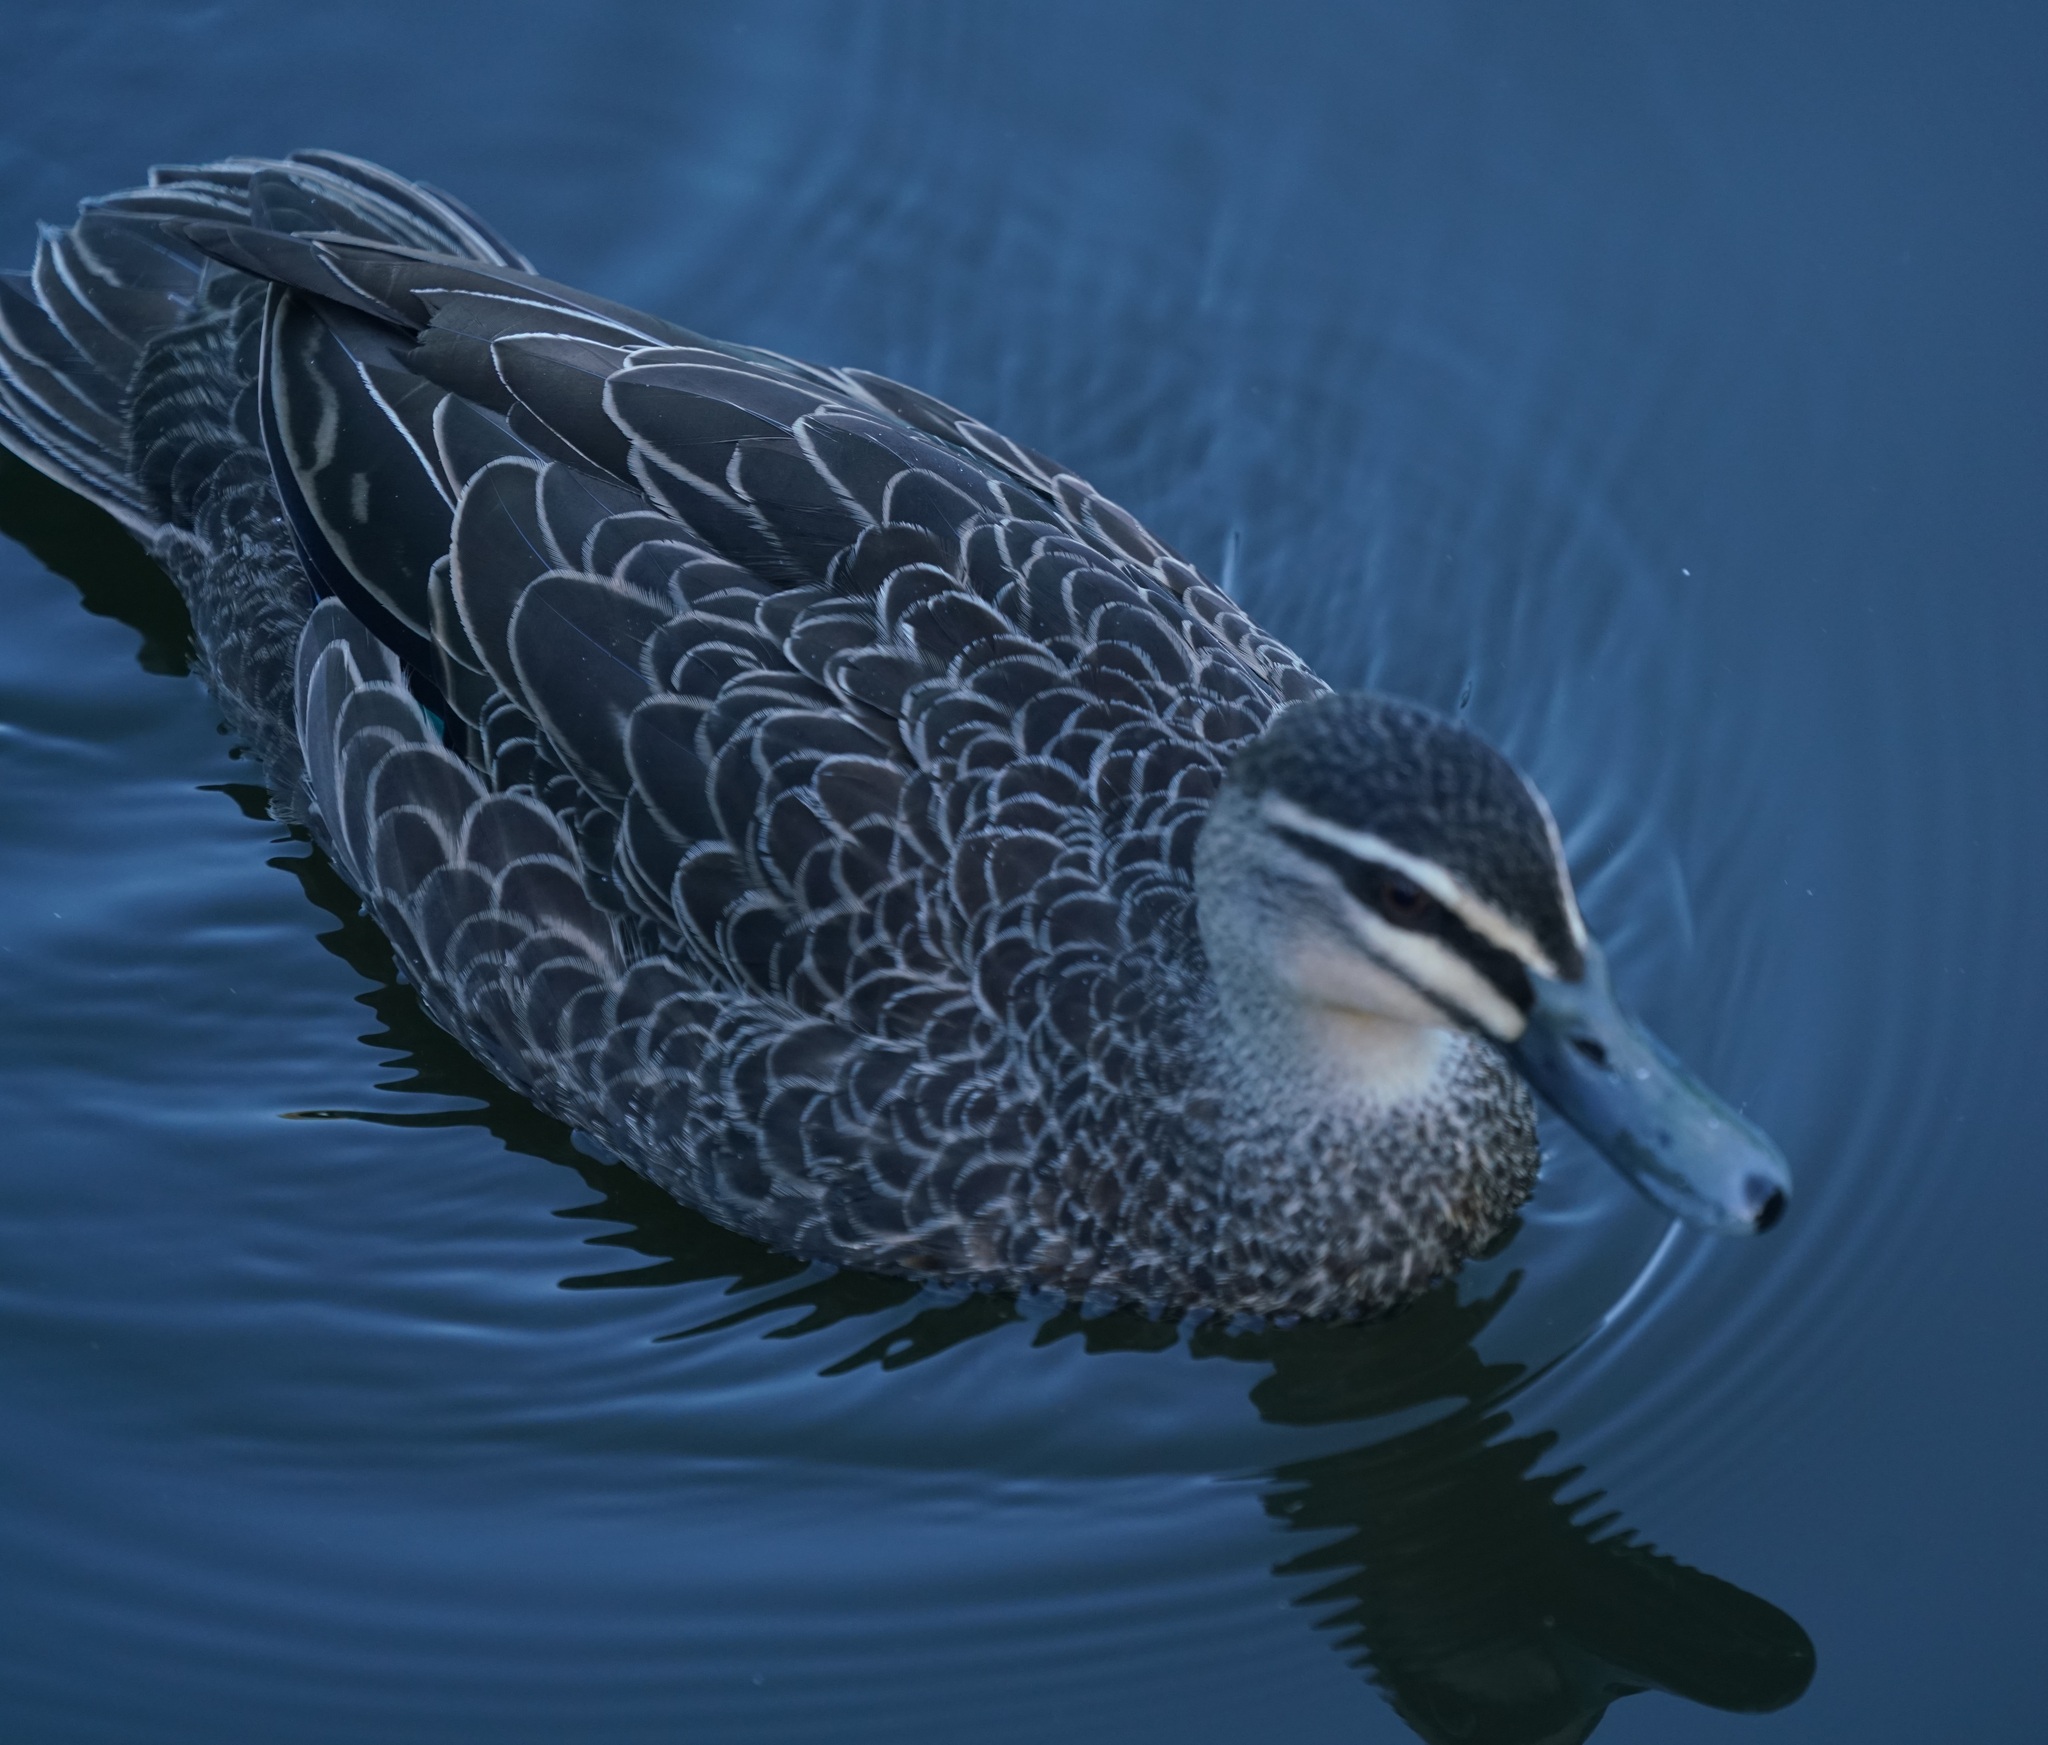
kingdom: Animalia
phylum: Chordata
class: Aves
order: Anseriformes
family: Anatidae
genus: Anas
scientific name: Anas superciliosa
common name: Pacific black duck
